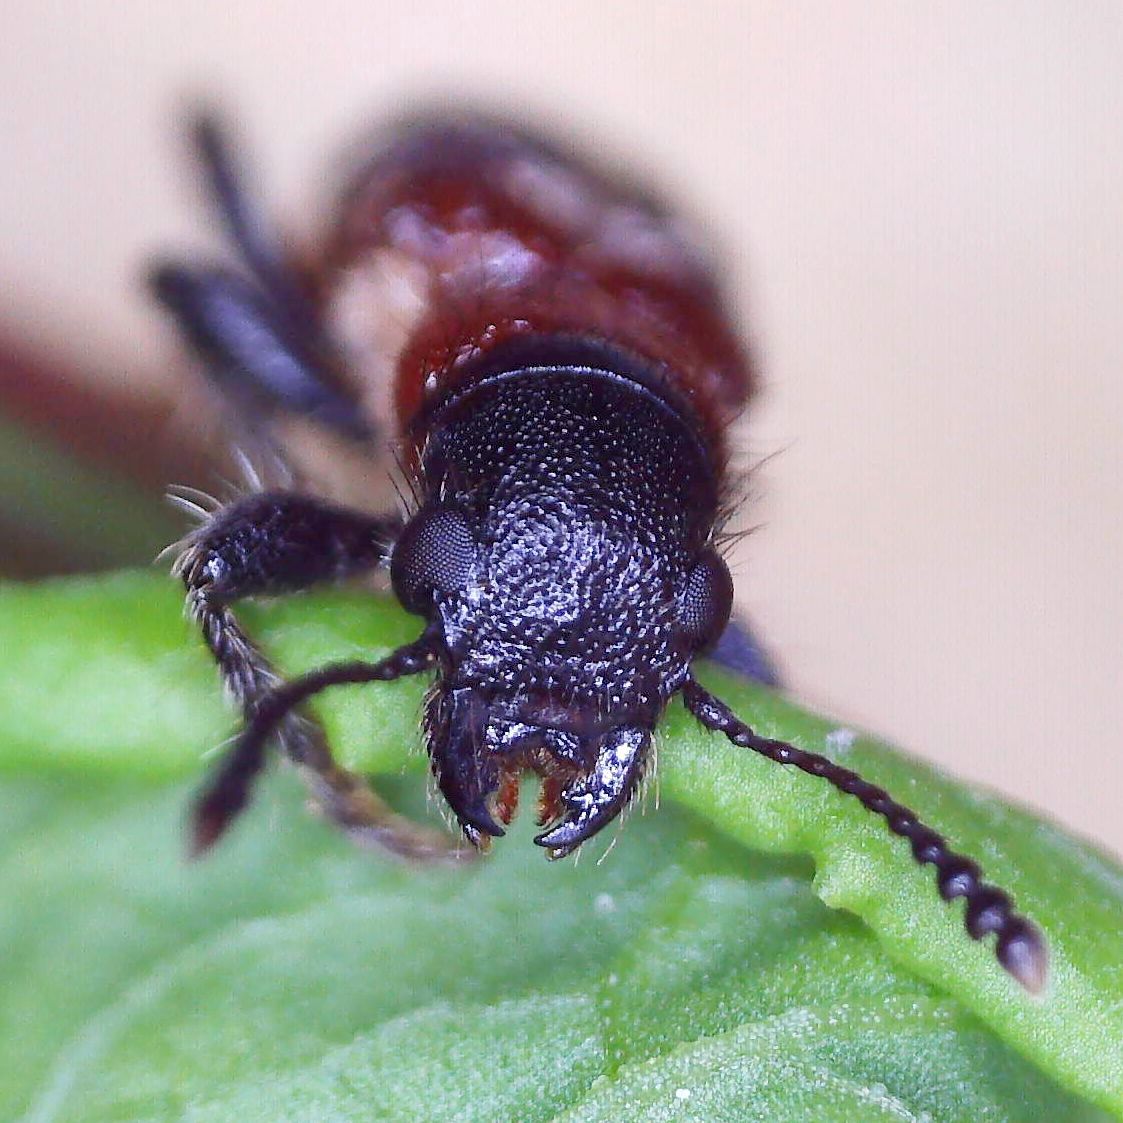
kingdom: Animalia
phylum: Arthropoda
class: Insecta
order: Coleoptera
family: Cleridae
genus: Thanasimus
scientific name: Thanasimus formicarius
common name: Ant beetle
